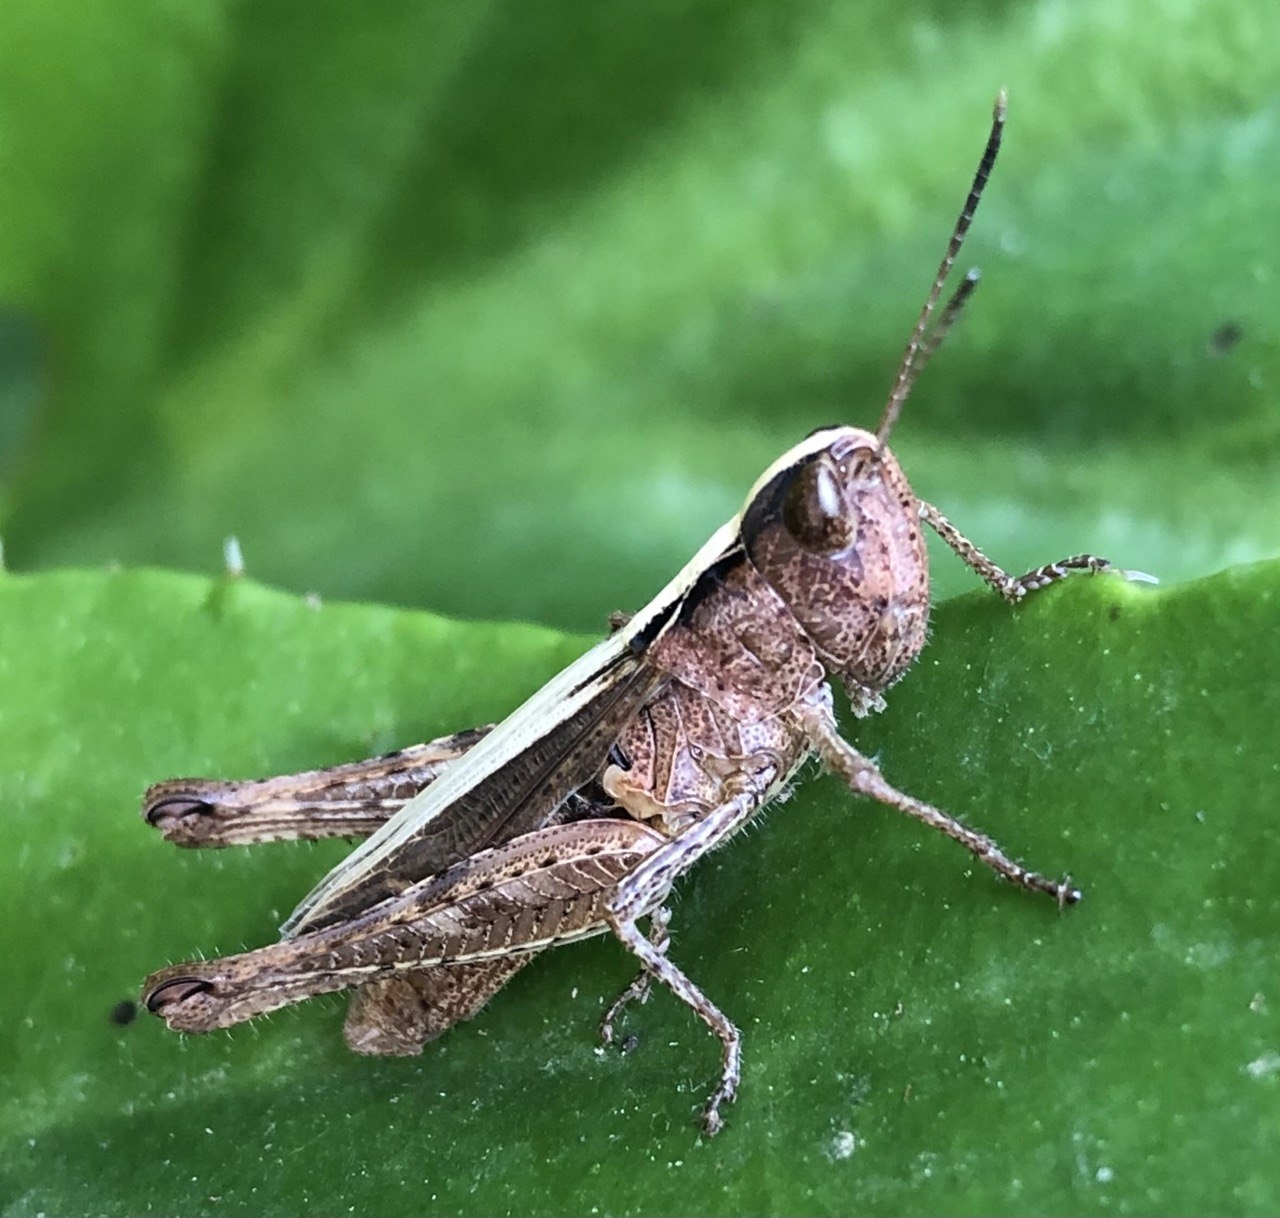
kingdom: Animalia
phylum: Arthropoda
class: Insecta
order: Orthoptera
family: Acrididae
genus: Gomphocerippus
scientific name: Gomphocerippus rufus
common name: Rufous grasshopper
